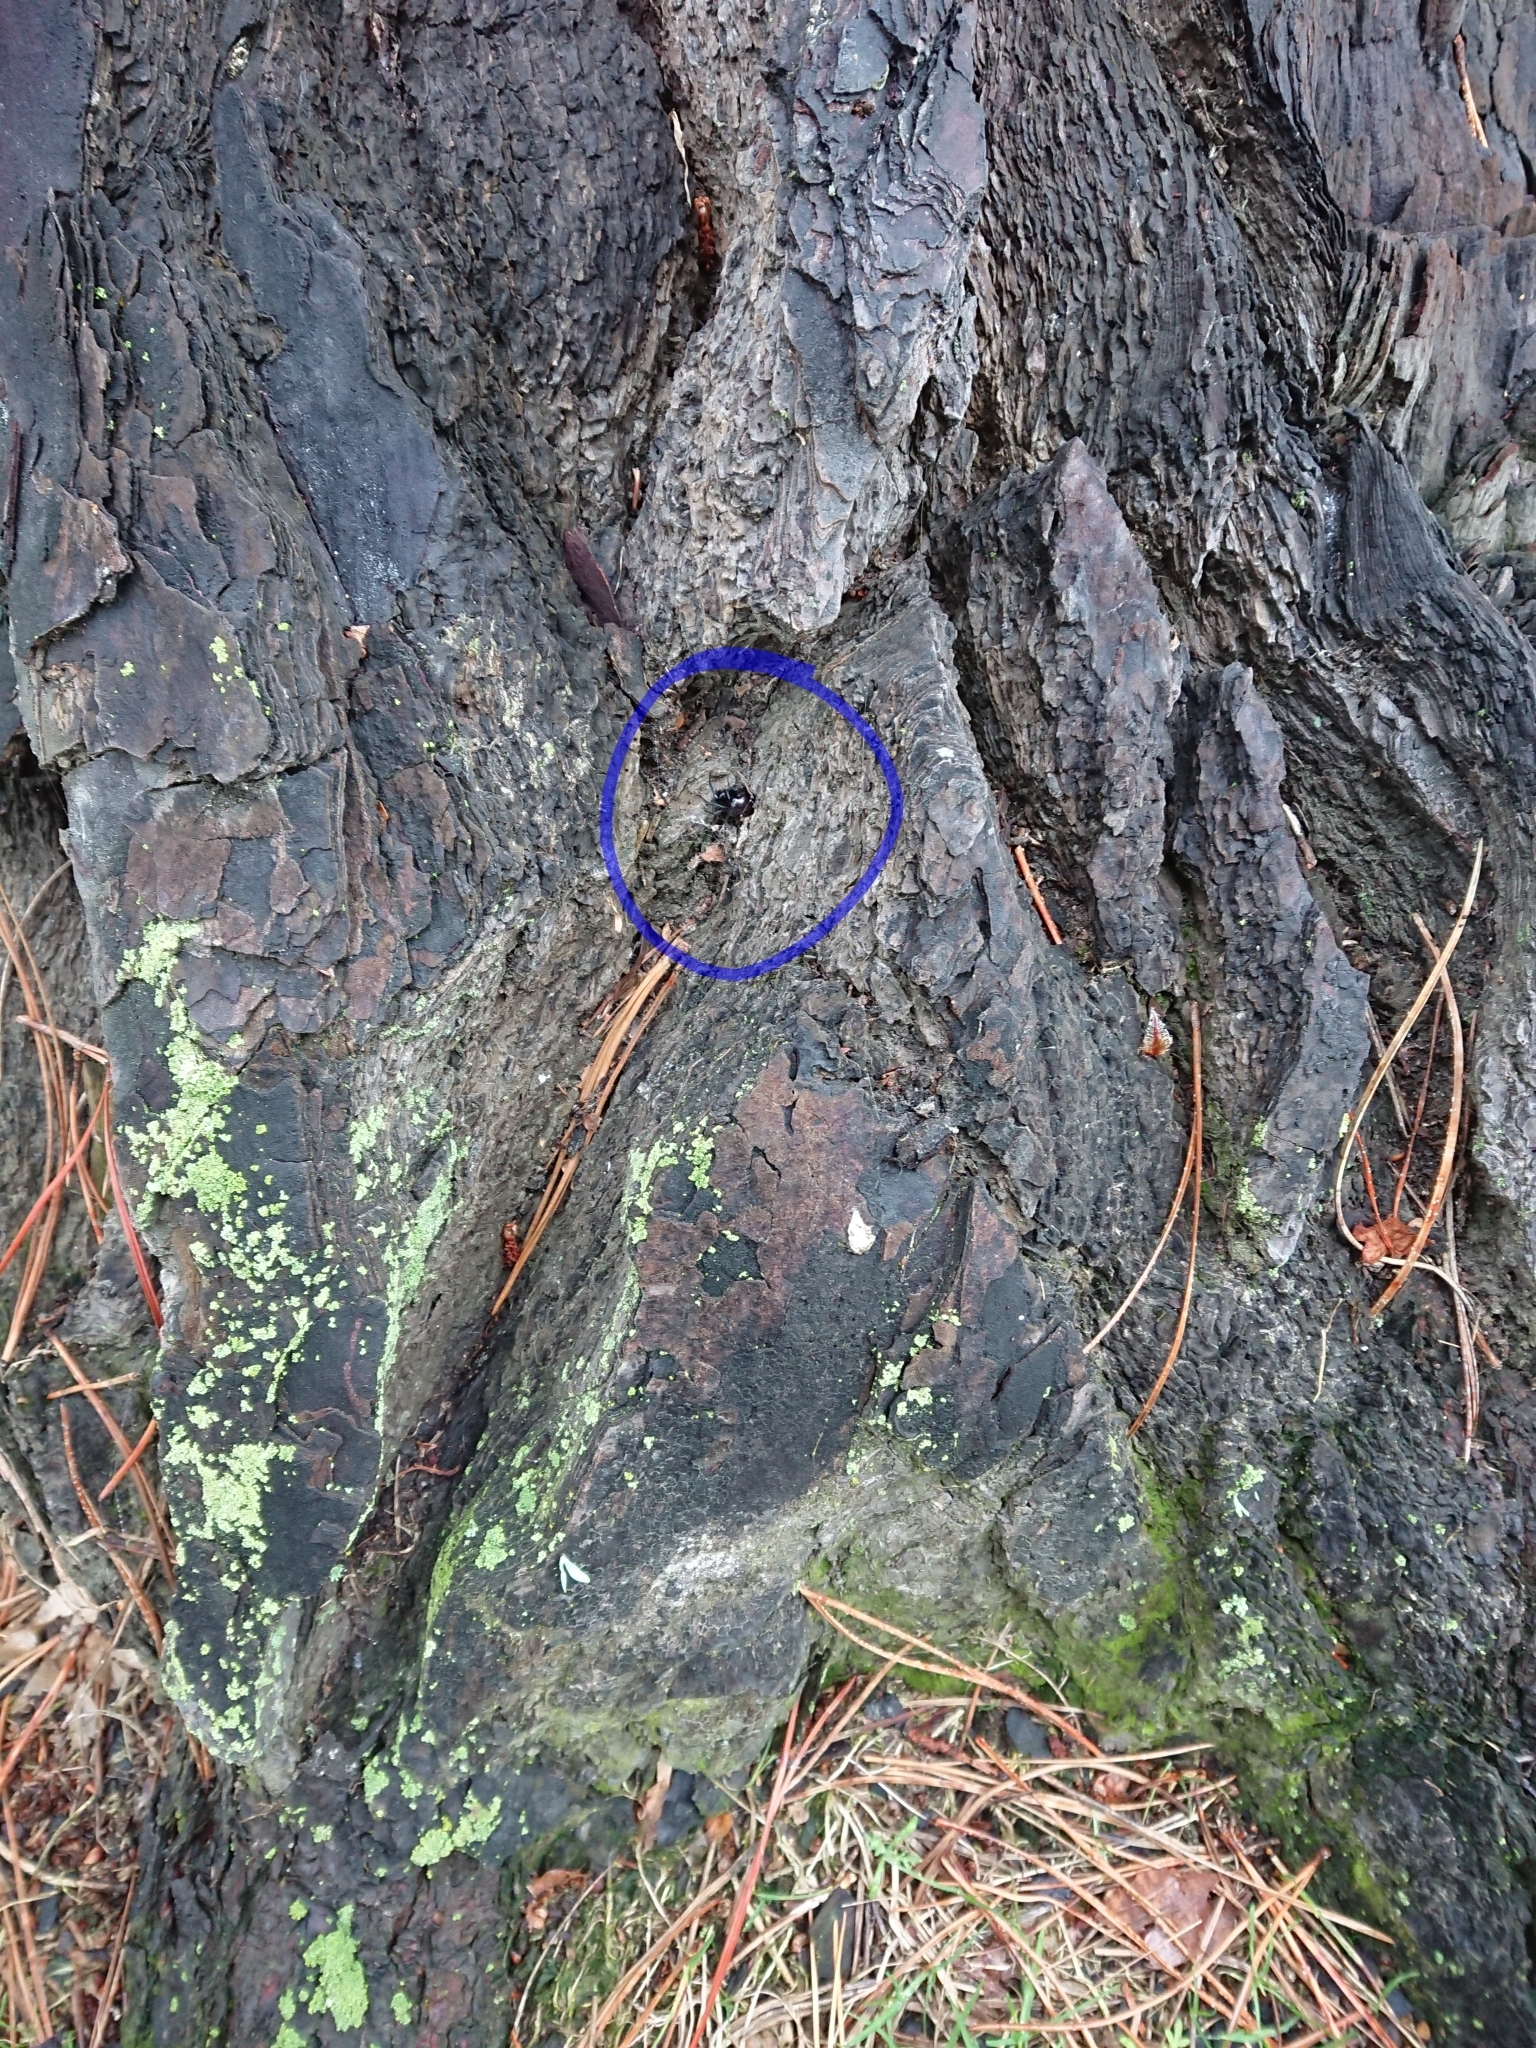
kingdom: Animalia
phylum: Arthropoda
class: Arachnida
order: Araneae
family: Theridiidae
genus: Steatoda
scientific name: Steatoda capensis
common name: Cobweb weaver
